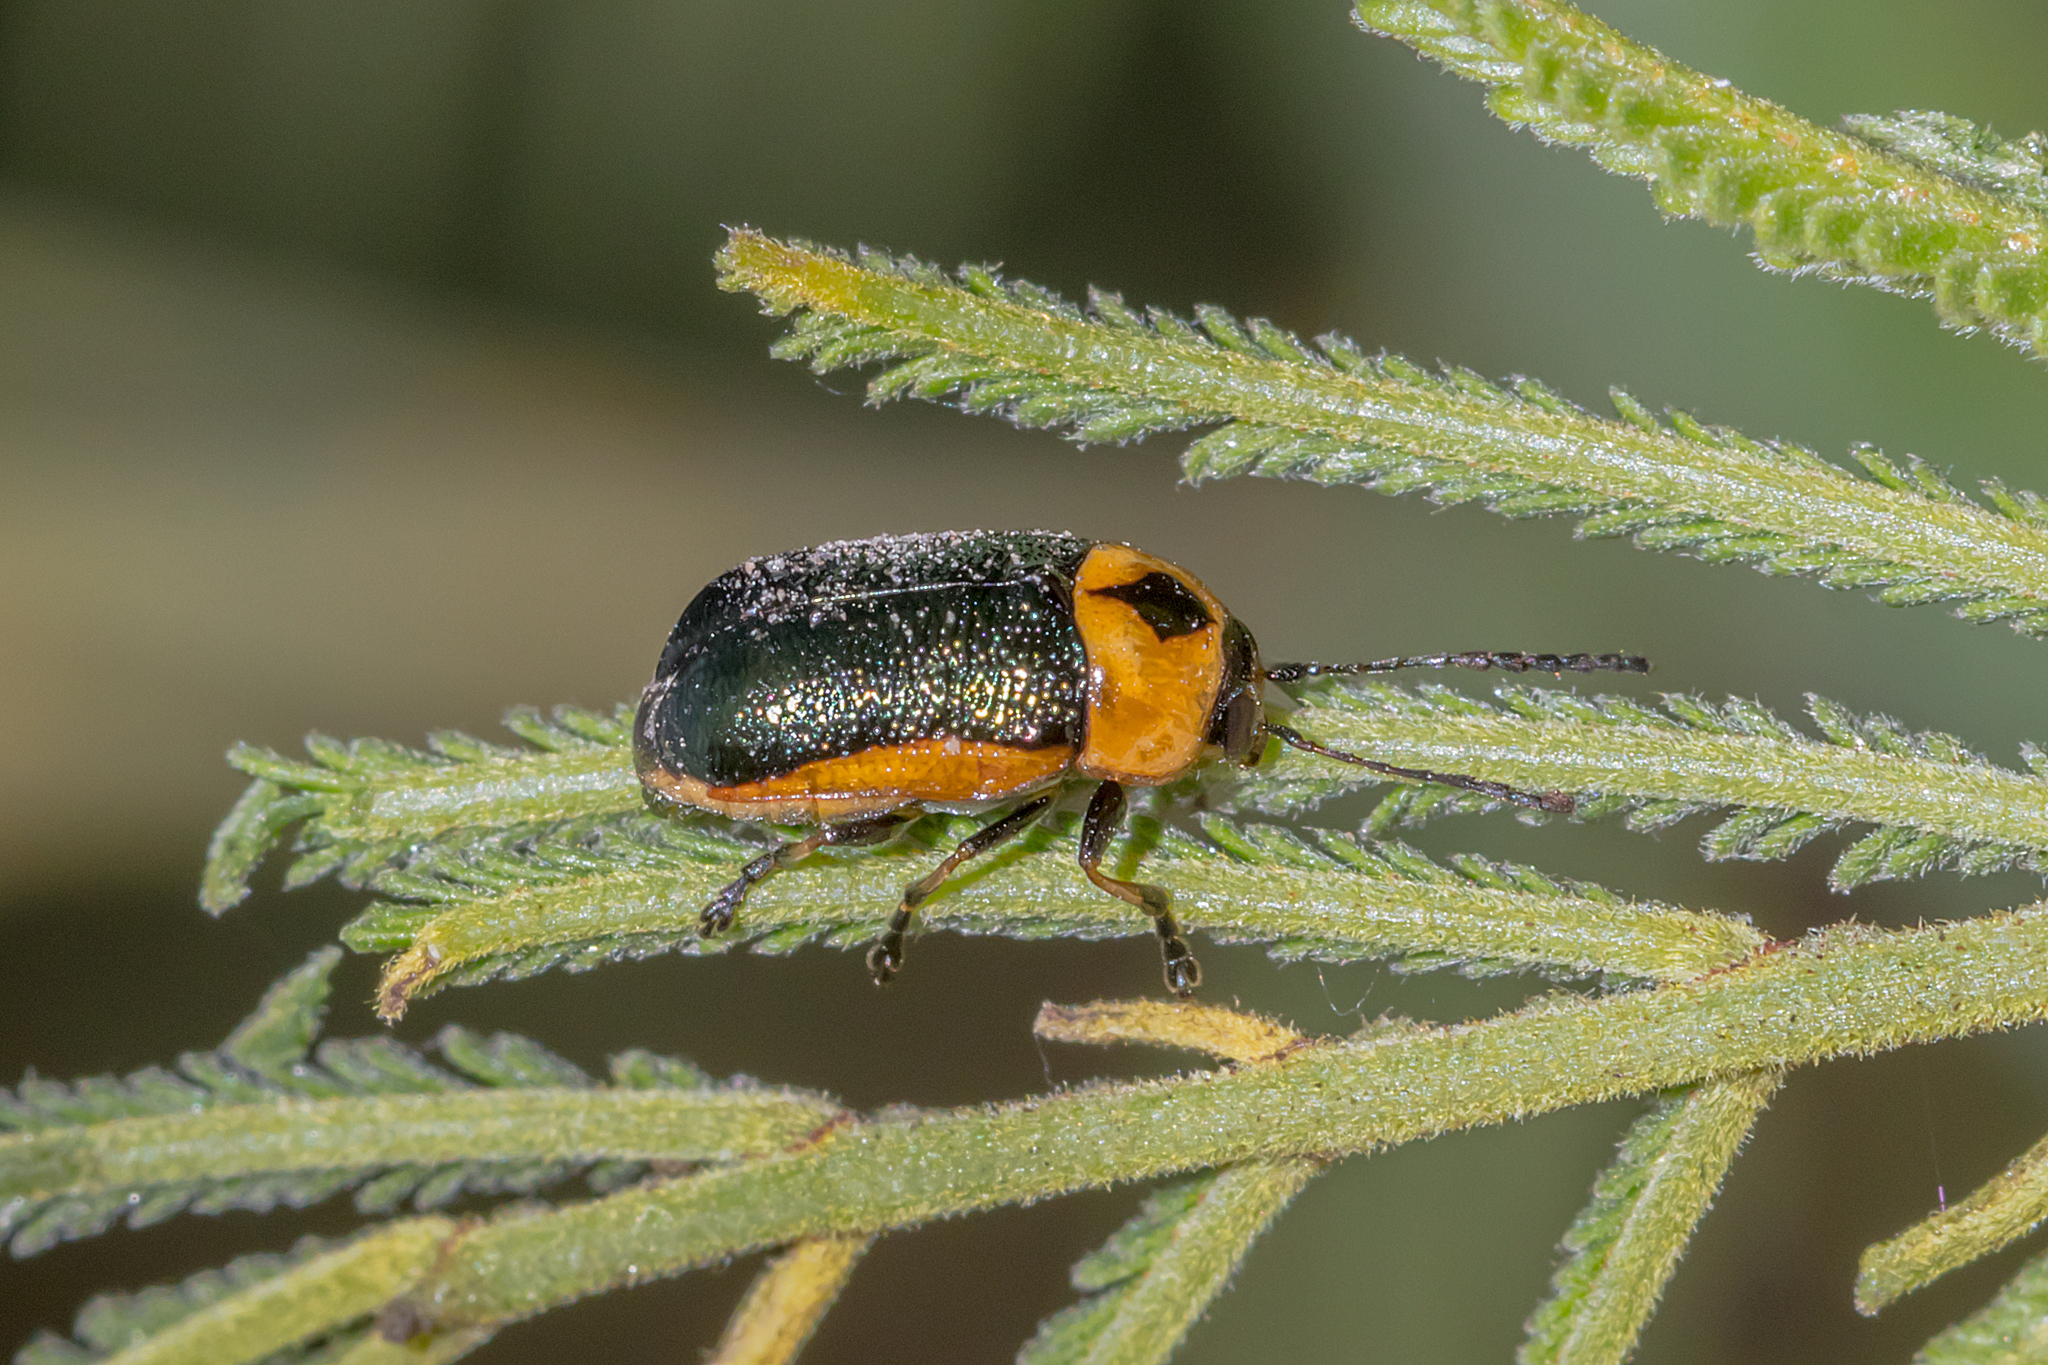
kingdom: Animalia
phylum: Arthropoda
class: Insecta
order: Coleoptera
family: Chrysomelidae
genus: Aporocera
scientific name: Aporocera
